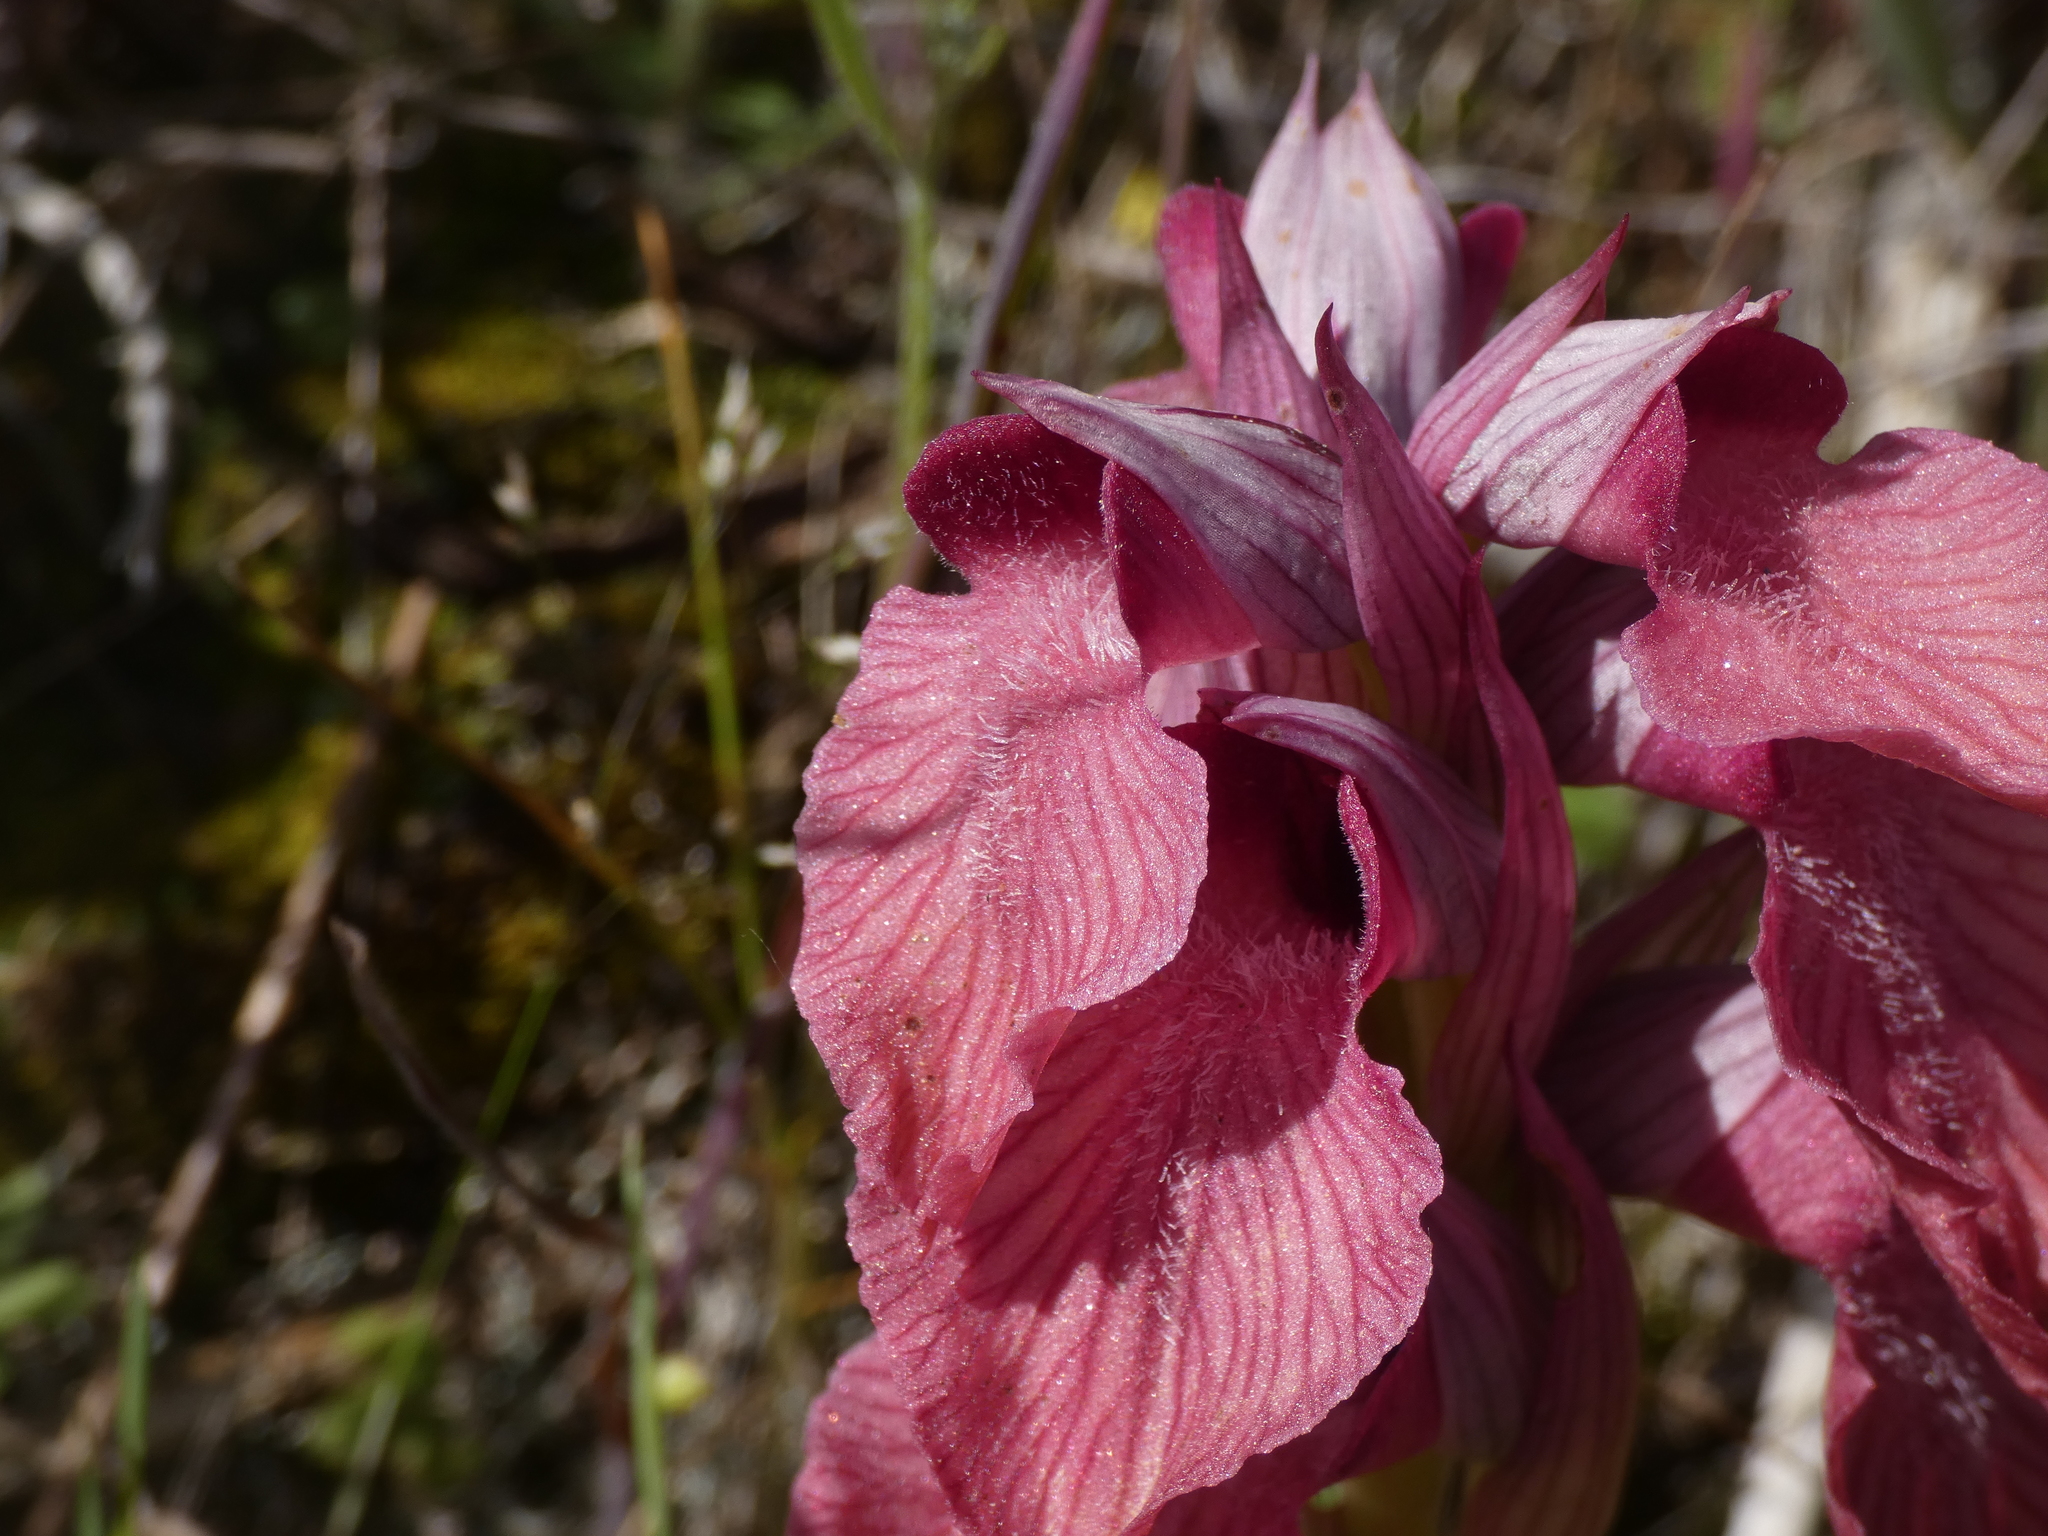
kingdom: Plantae
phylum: Tracheophyta
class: Liliopsida
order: Asparagales
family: Orchidaceae
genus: Serapias
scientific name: Serapias neglecta
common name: Neglected serapias
